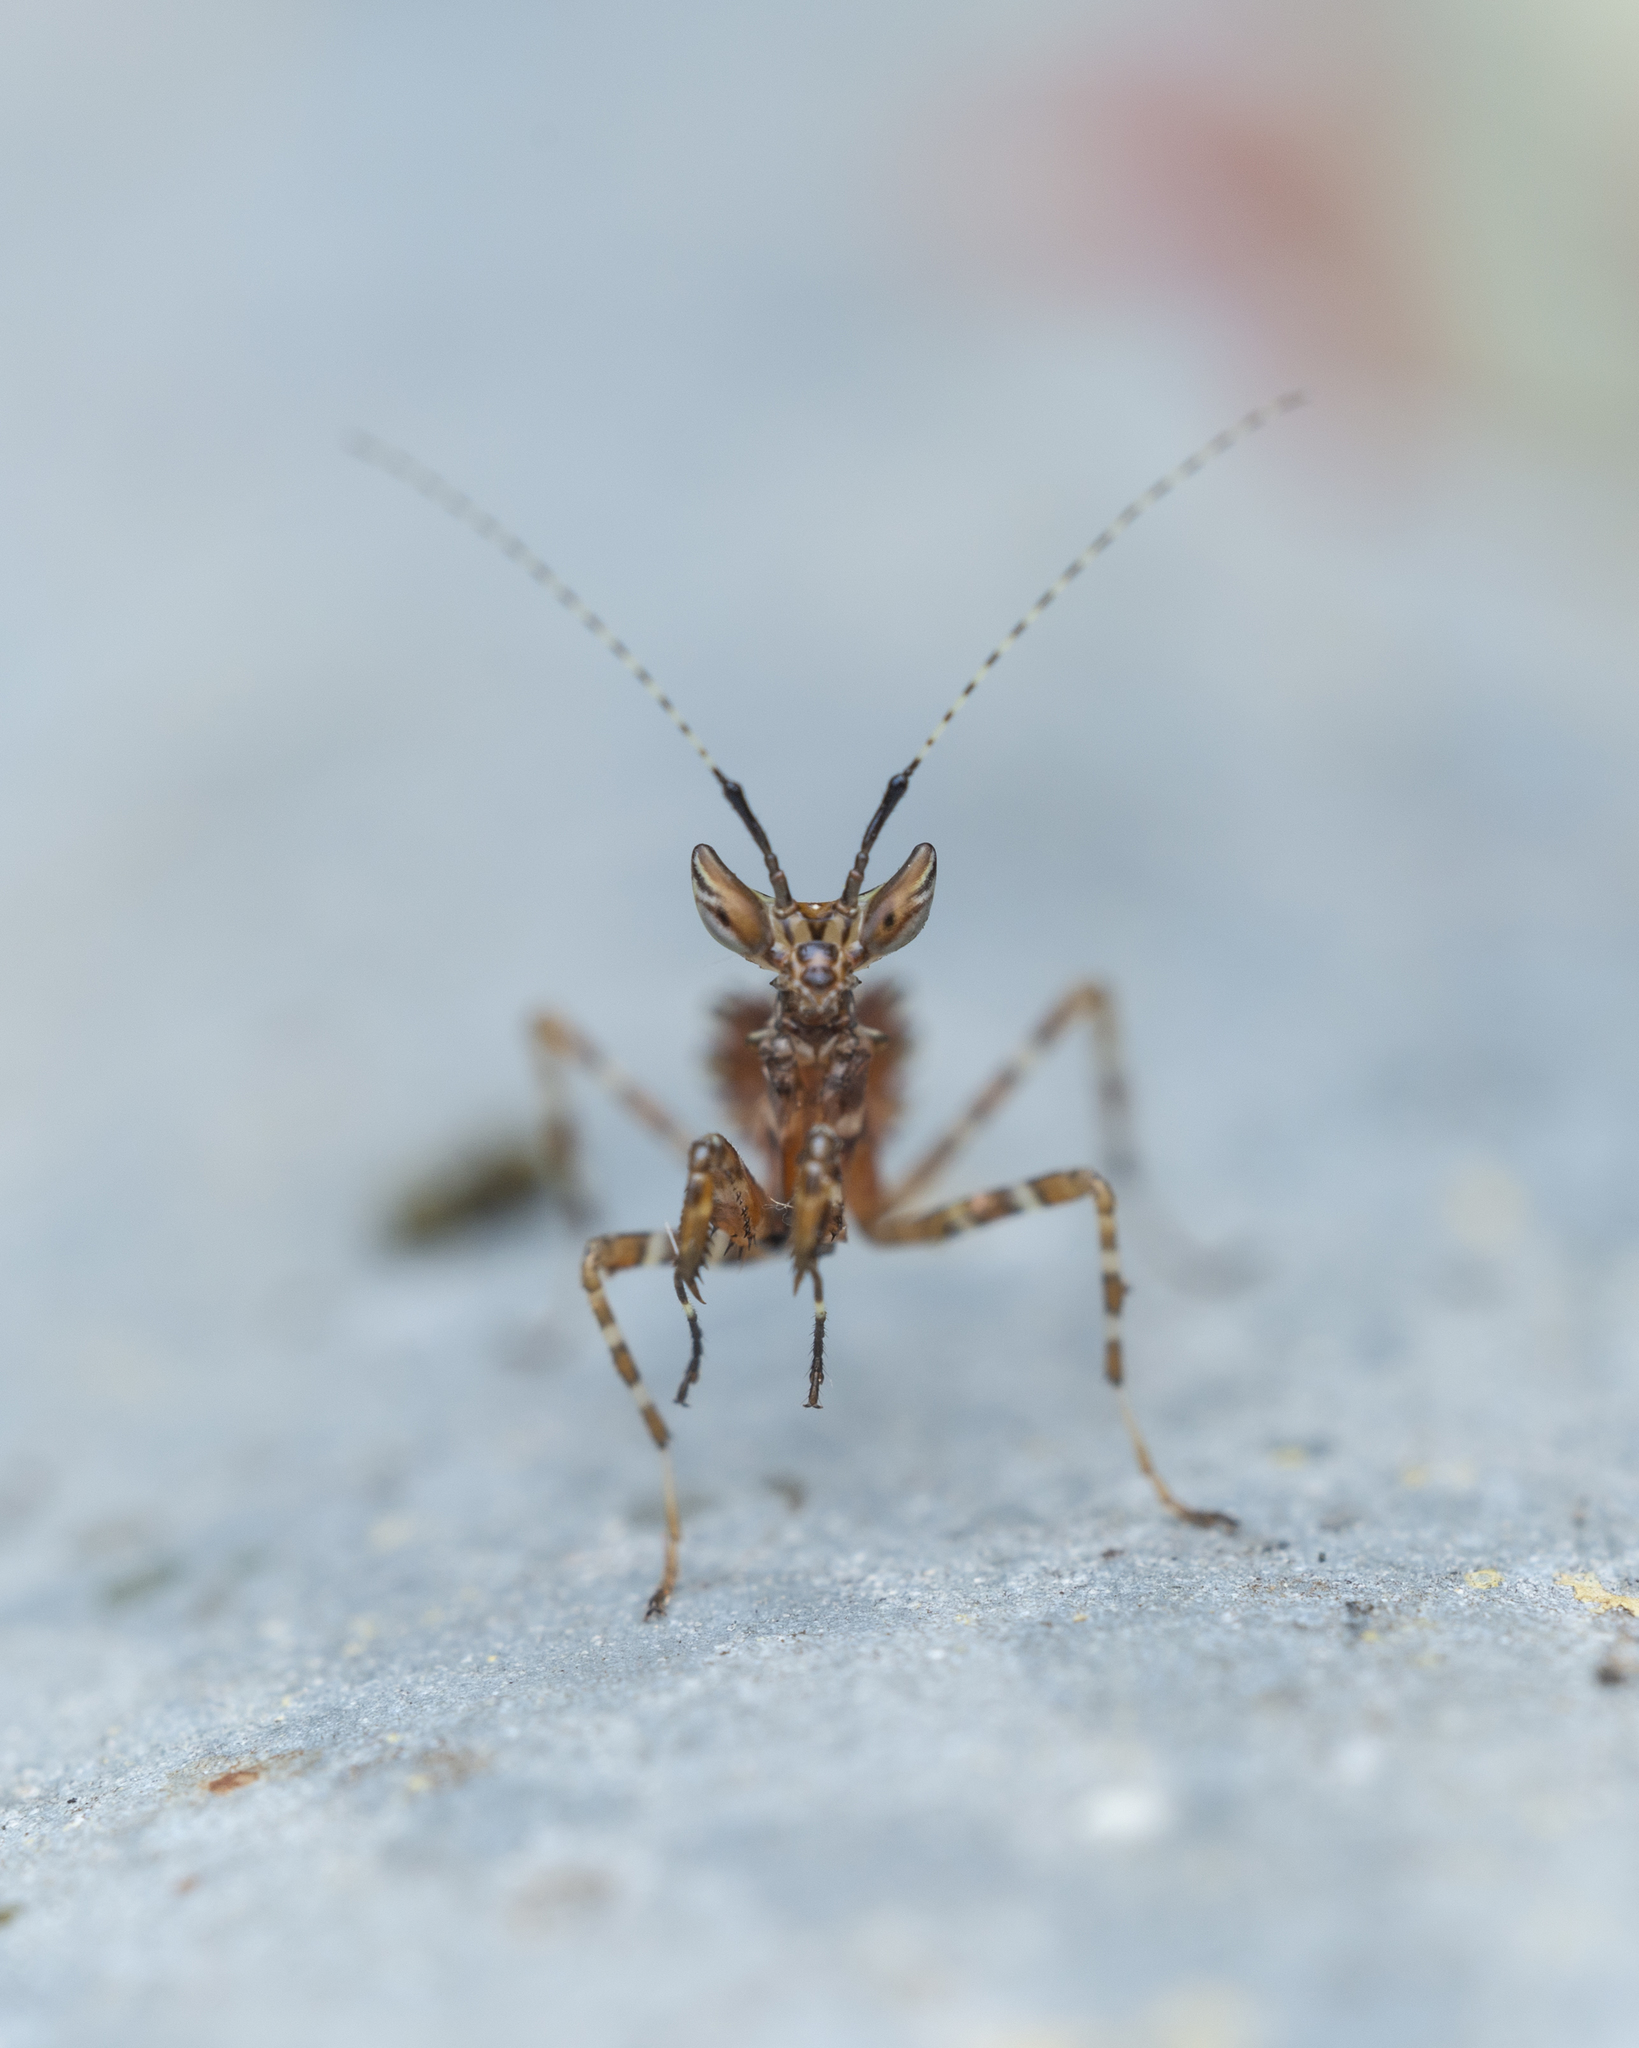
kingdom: Animalia
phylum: Arthropoda
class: Insecta
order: Mantodea
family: Hymenopodidae
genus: Creobroter
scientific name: Creobroter gemmatus
